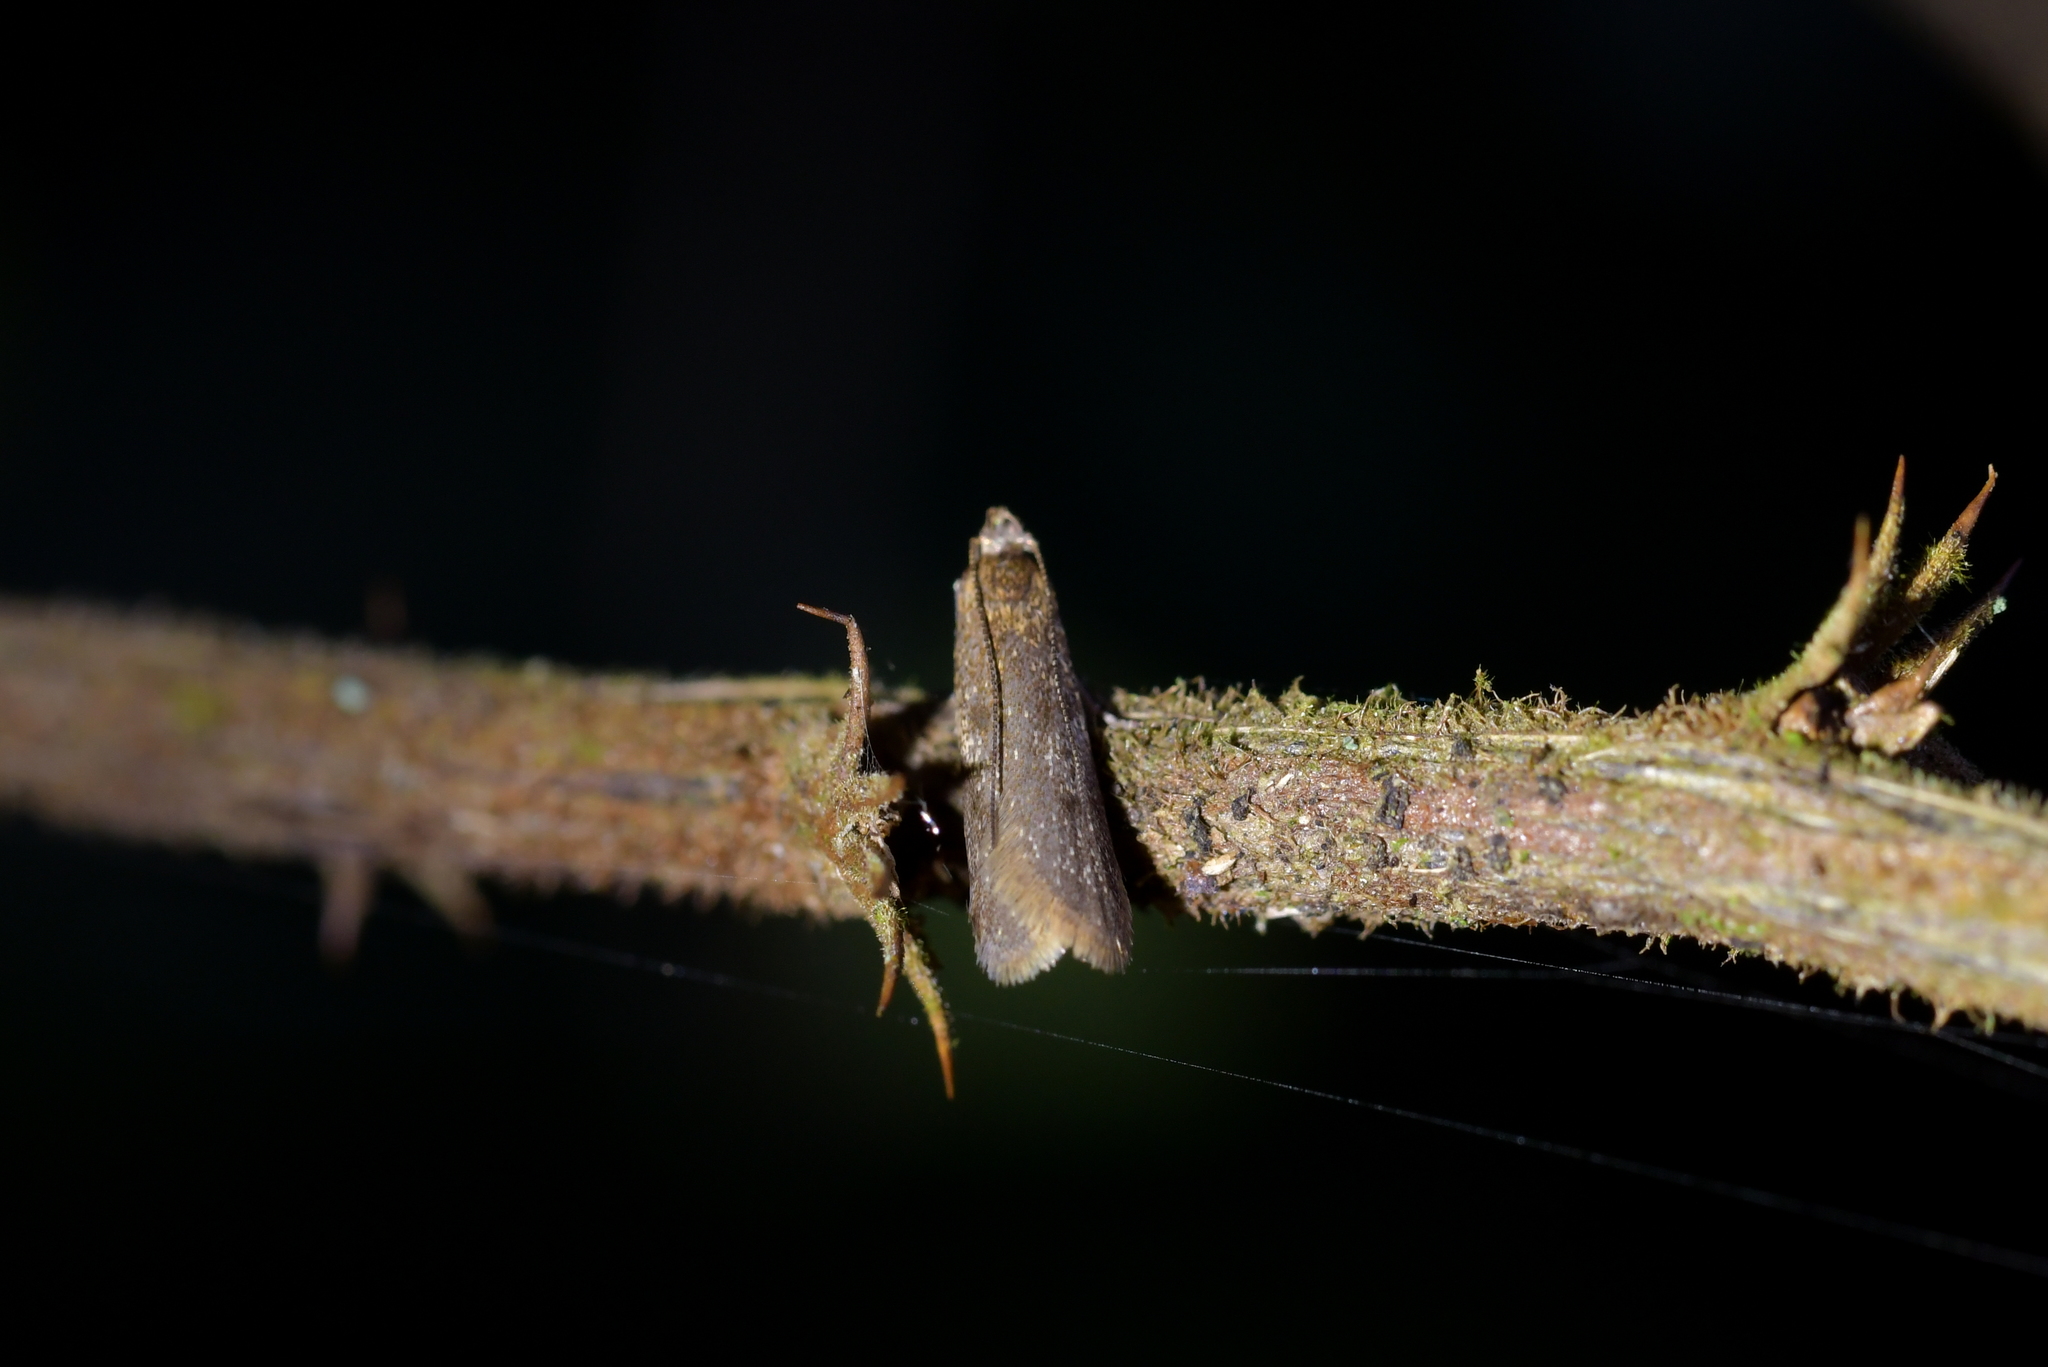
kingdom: Animalia
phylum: Arthropoda
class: Insecta
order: Lepidoptera
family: Oecophoridae
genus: Gymnobathra
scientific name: Gymnobathra tholodella
